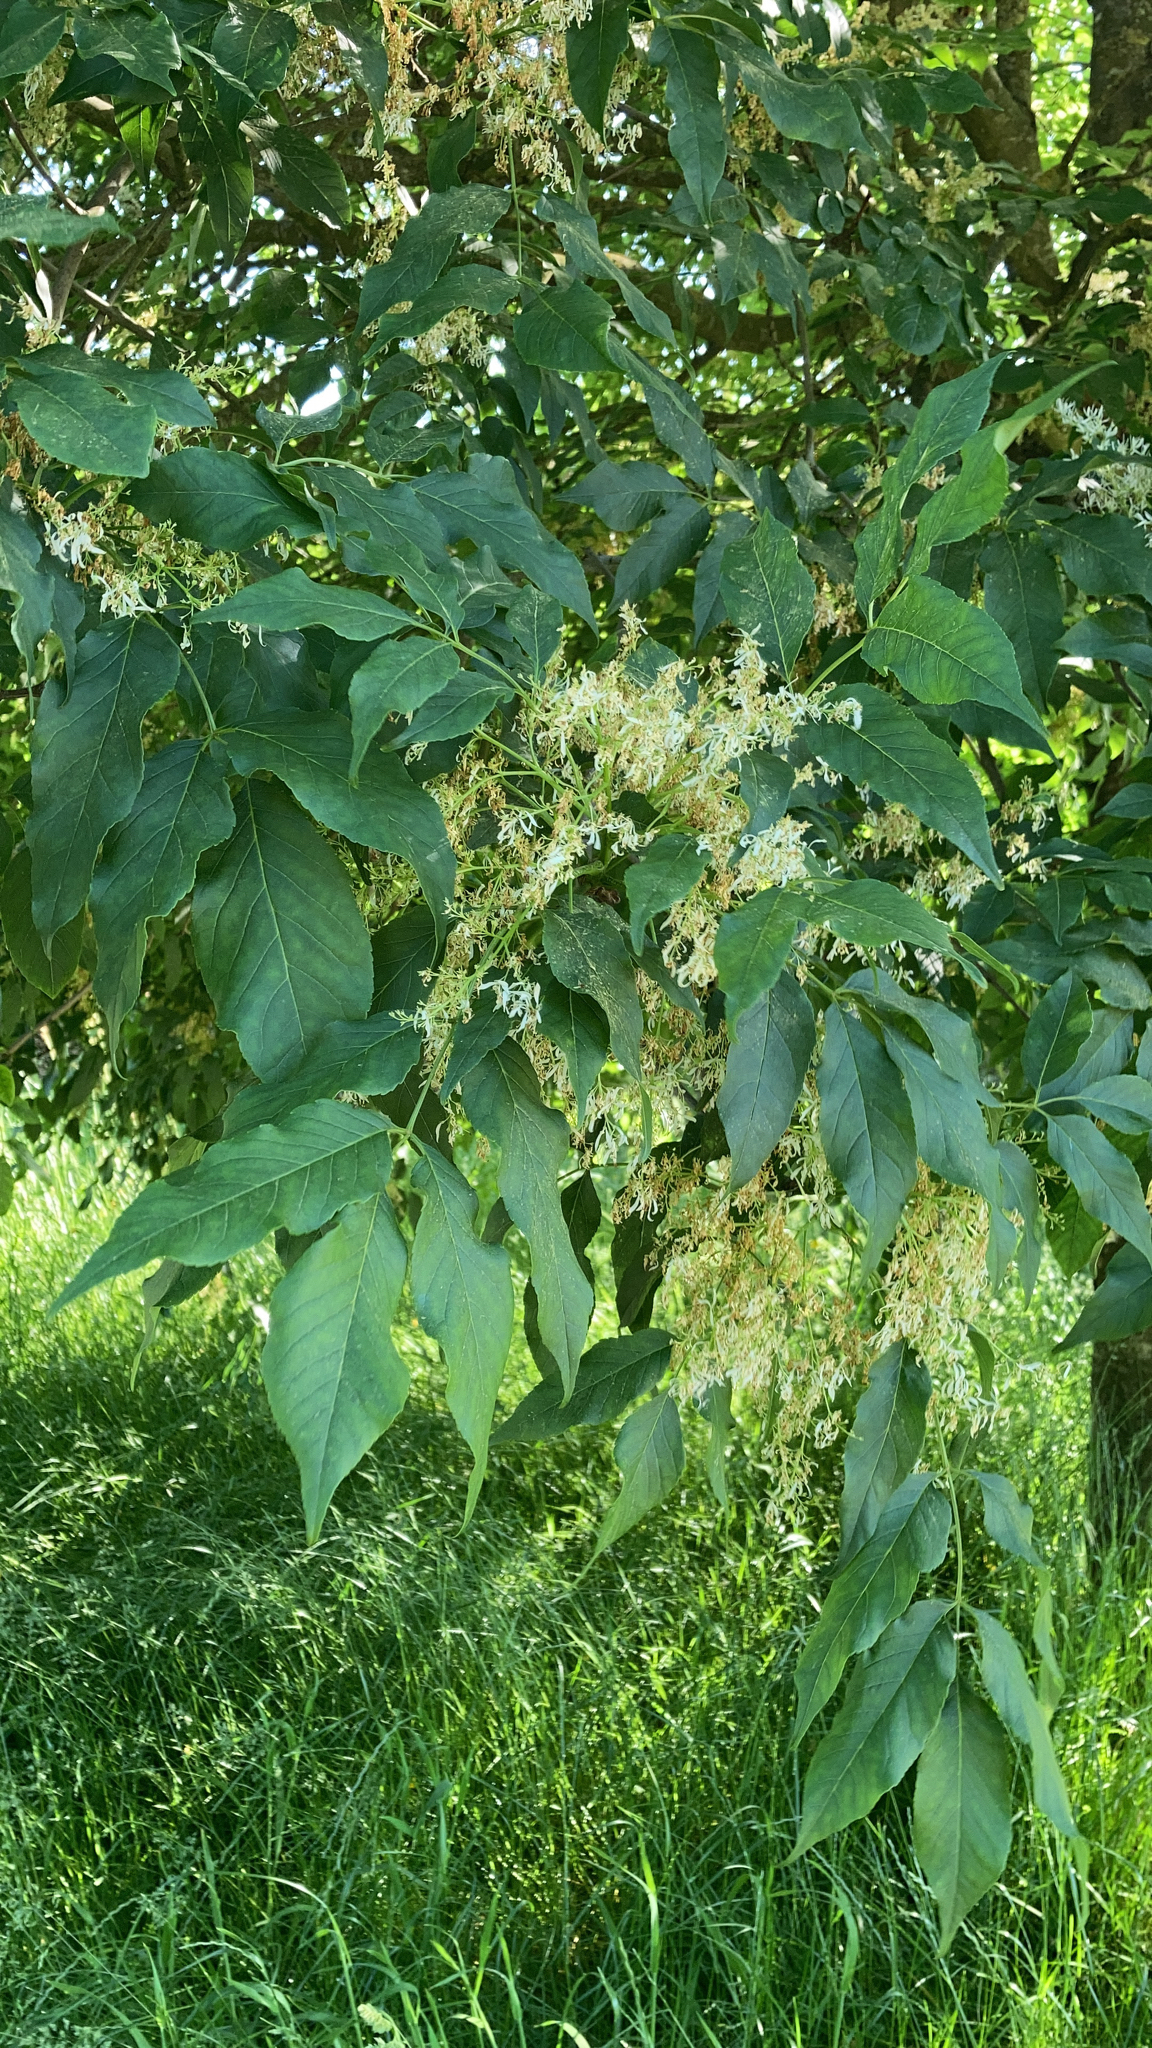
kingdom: Plantae
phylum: Tracheophyta
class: Magnoliopsida
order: Lamiales
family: Oleaceae
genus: Fraxinus
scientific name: Fraxinus ornus
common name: Manna ash
